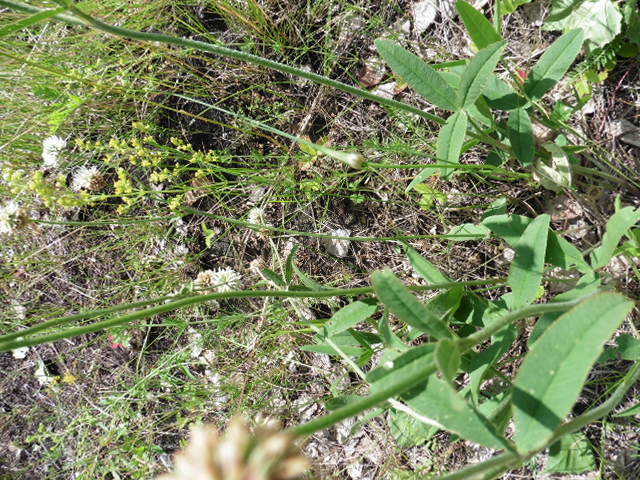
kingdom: Plantae
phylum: Tracheophyta
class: Magnoliopsida
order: Fabales
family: Fabaceae
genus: Trifolium
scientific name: Trifolium montanum
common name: Mountain clover
